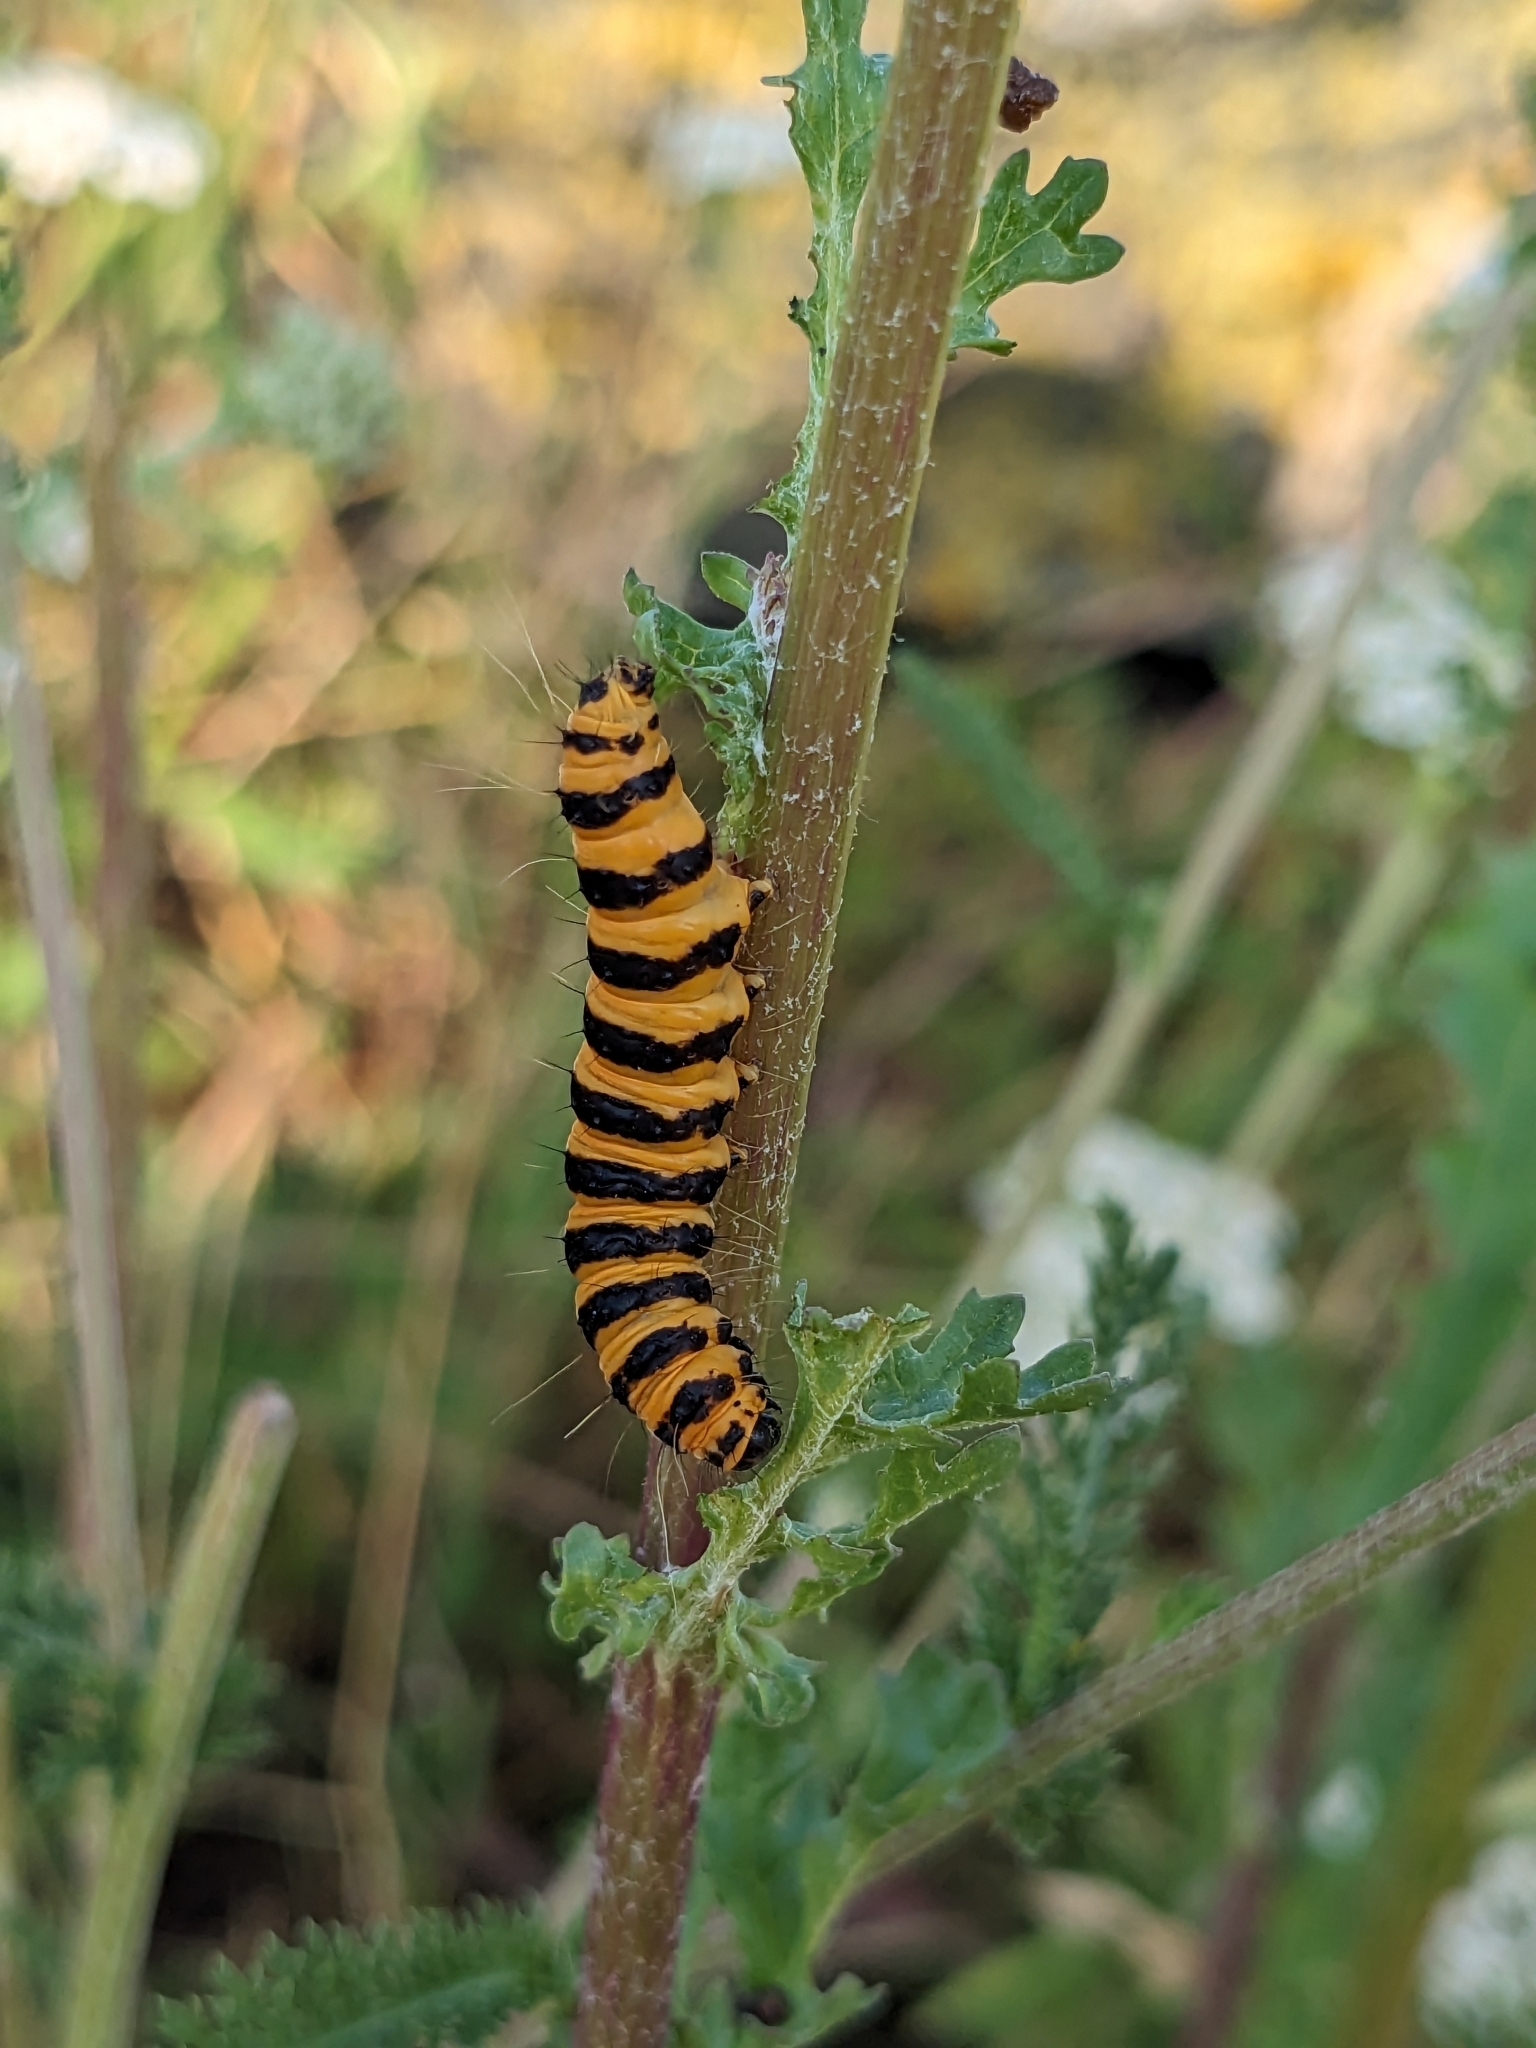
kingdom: Animalia
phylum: Arthropoda
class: Insecta
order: Lepidoptera
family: Erebidae
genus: Tyria
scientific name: Tyria jacobaeae
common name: Cinnabar
